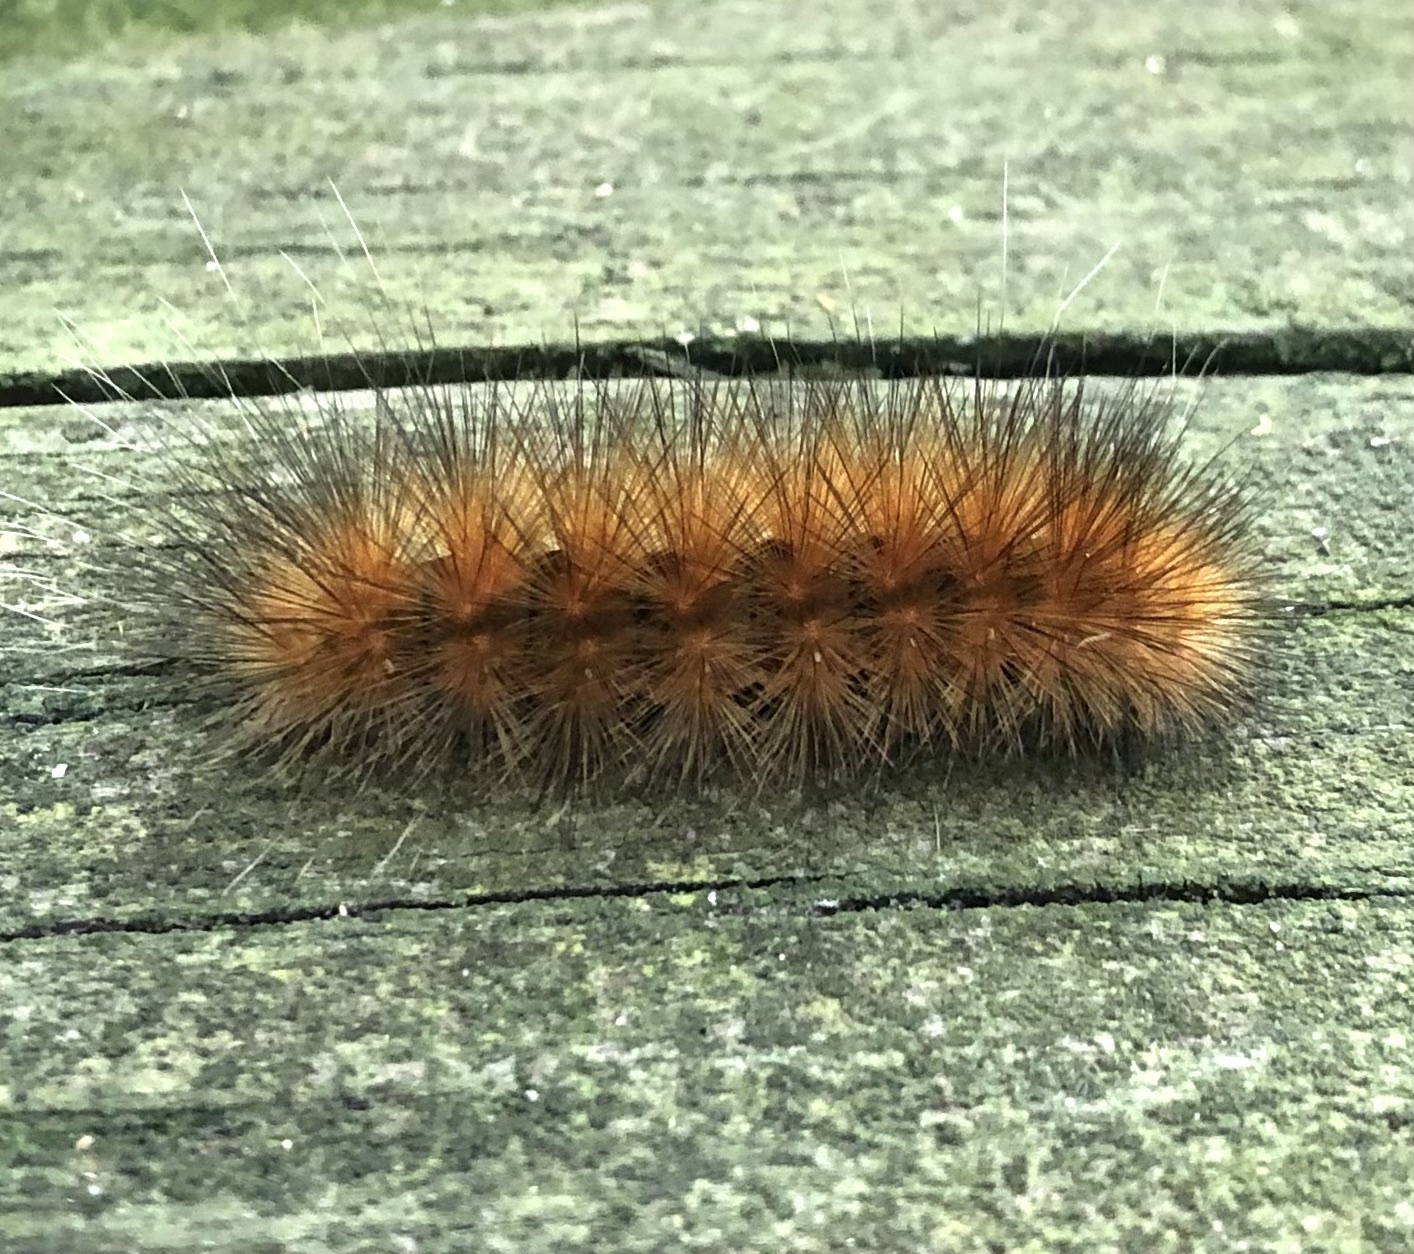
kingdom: Animalia
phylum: Arthropoda
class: Insecta
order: Lepidoptera
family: Erebidae
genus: Spilosoma
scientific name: Spilosoma virginica
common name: Virginia tiger moth
